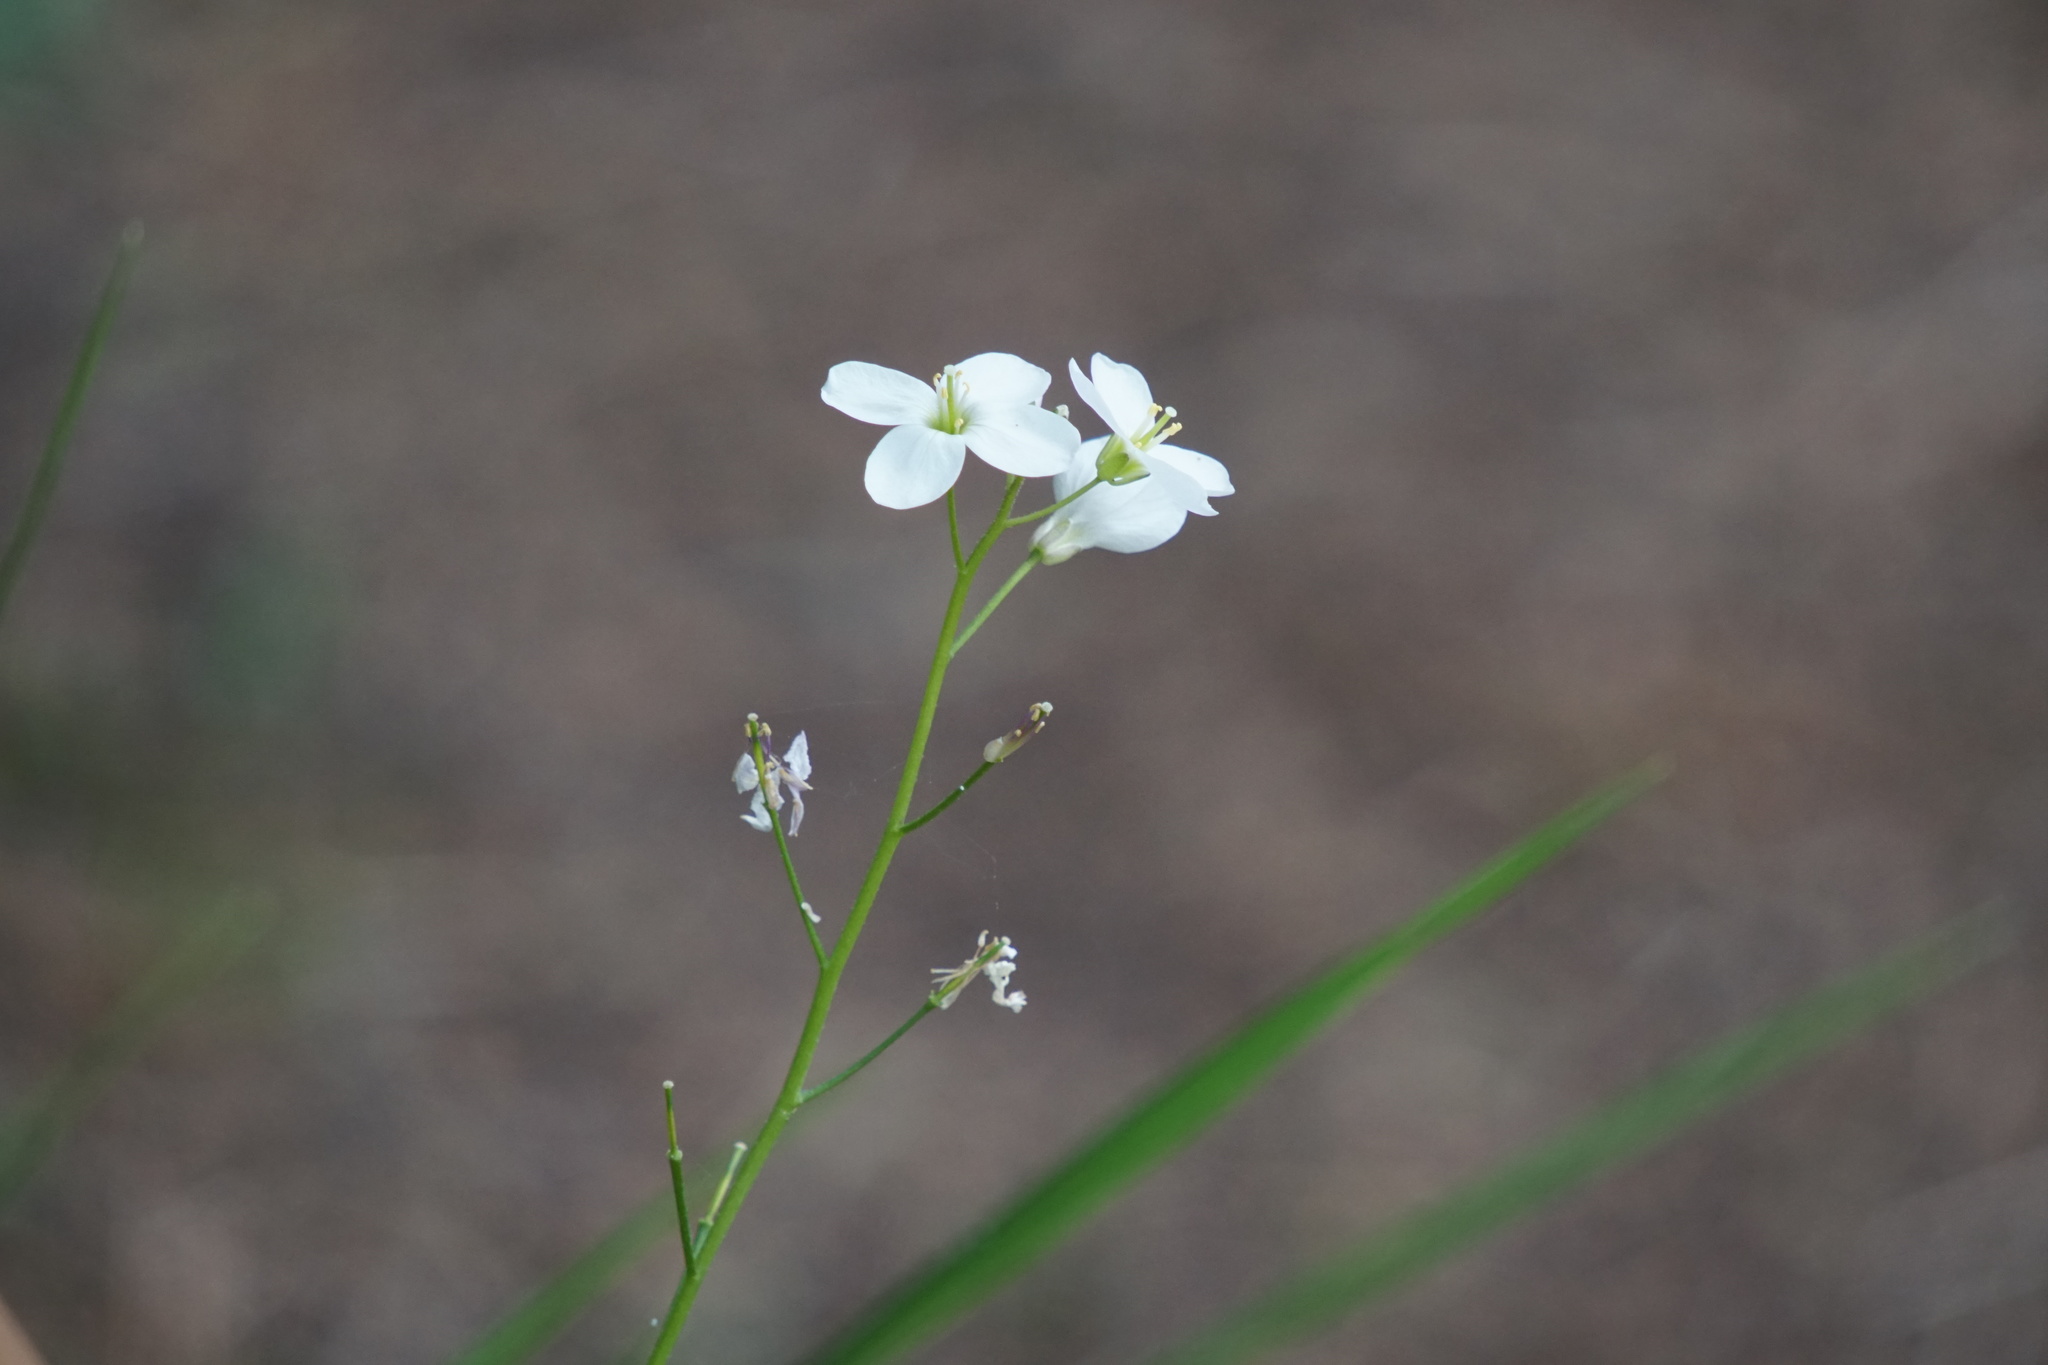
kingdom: Plantae
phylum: Tracheophyta
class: Magnoliopsida
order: Brassicales
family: Brassicaceae
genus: Cardamine
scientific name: Cardamine californica
